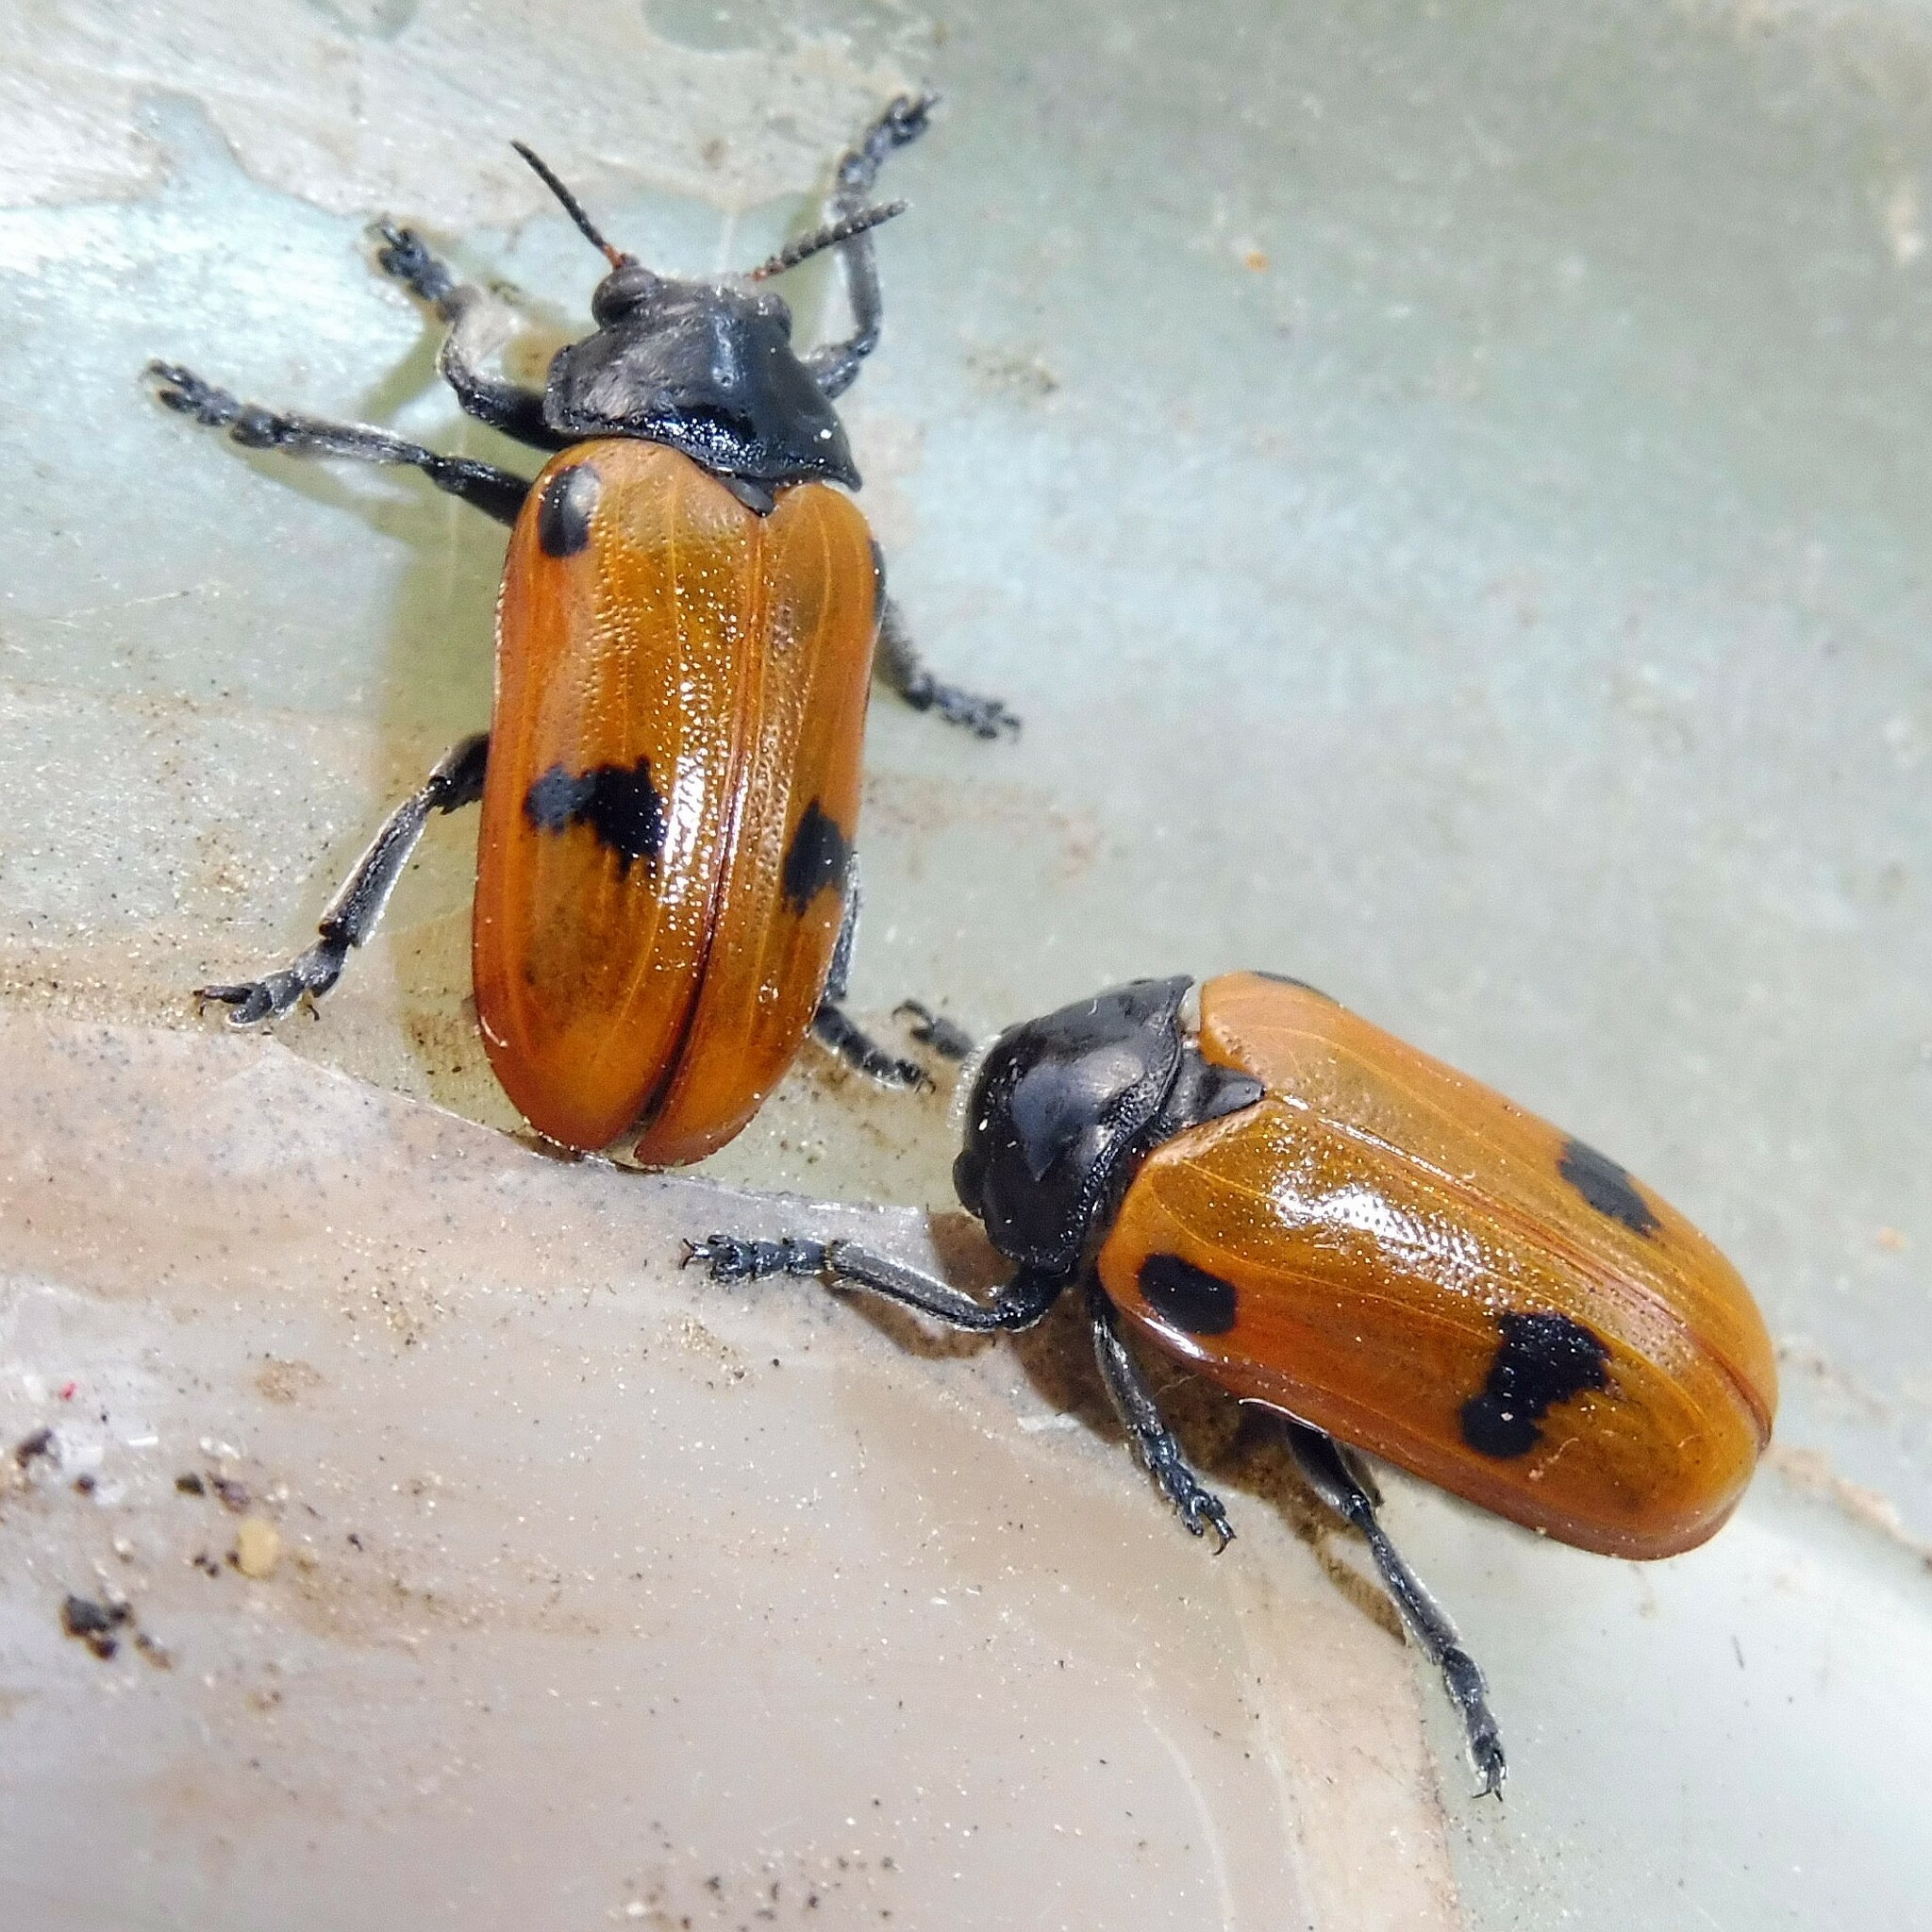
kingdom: Animalia
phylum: Arthropoda
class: Insecta
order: Coleoptera
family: Chrysomelidae
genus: Clytra
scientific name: Clytra quadripunctata
